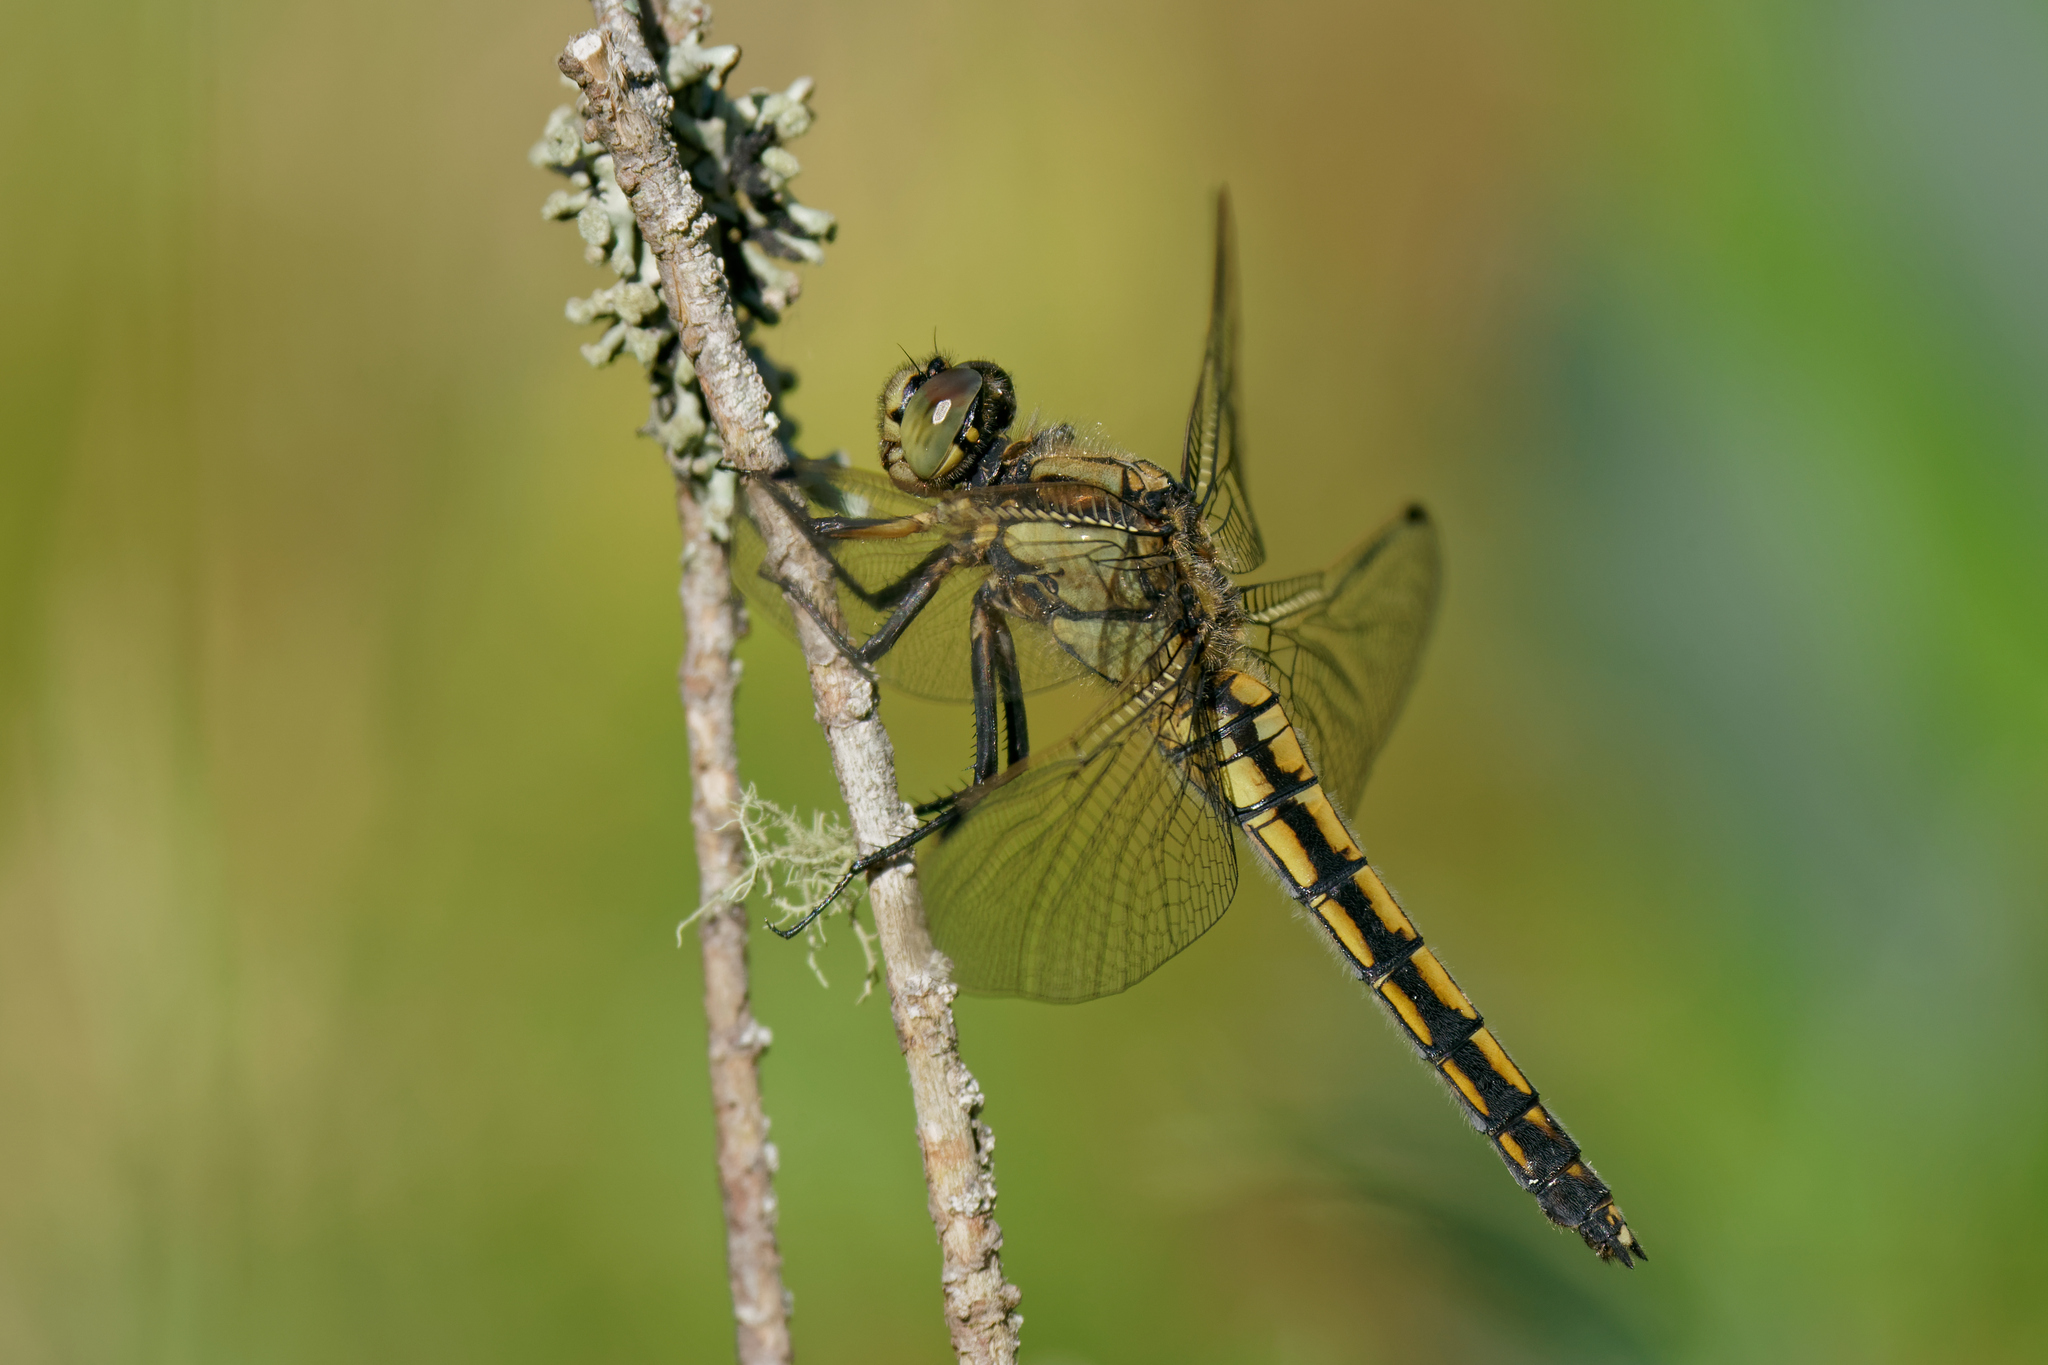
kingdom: Animalia
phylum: Arthropoda
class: Insecta
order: Odonata
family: Libellulidae
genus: Orthetrum
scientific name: Orthetrum cancellatum
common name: Black-tailed skimmer
